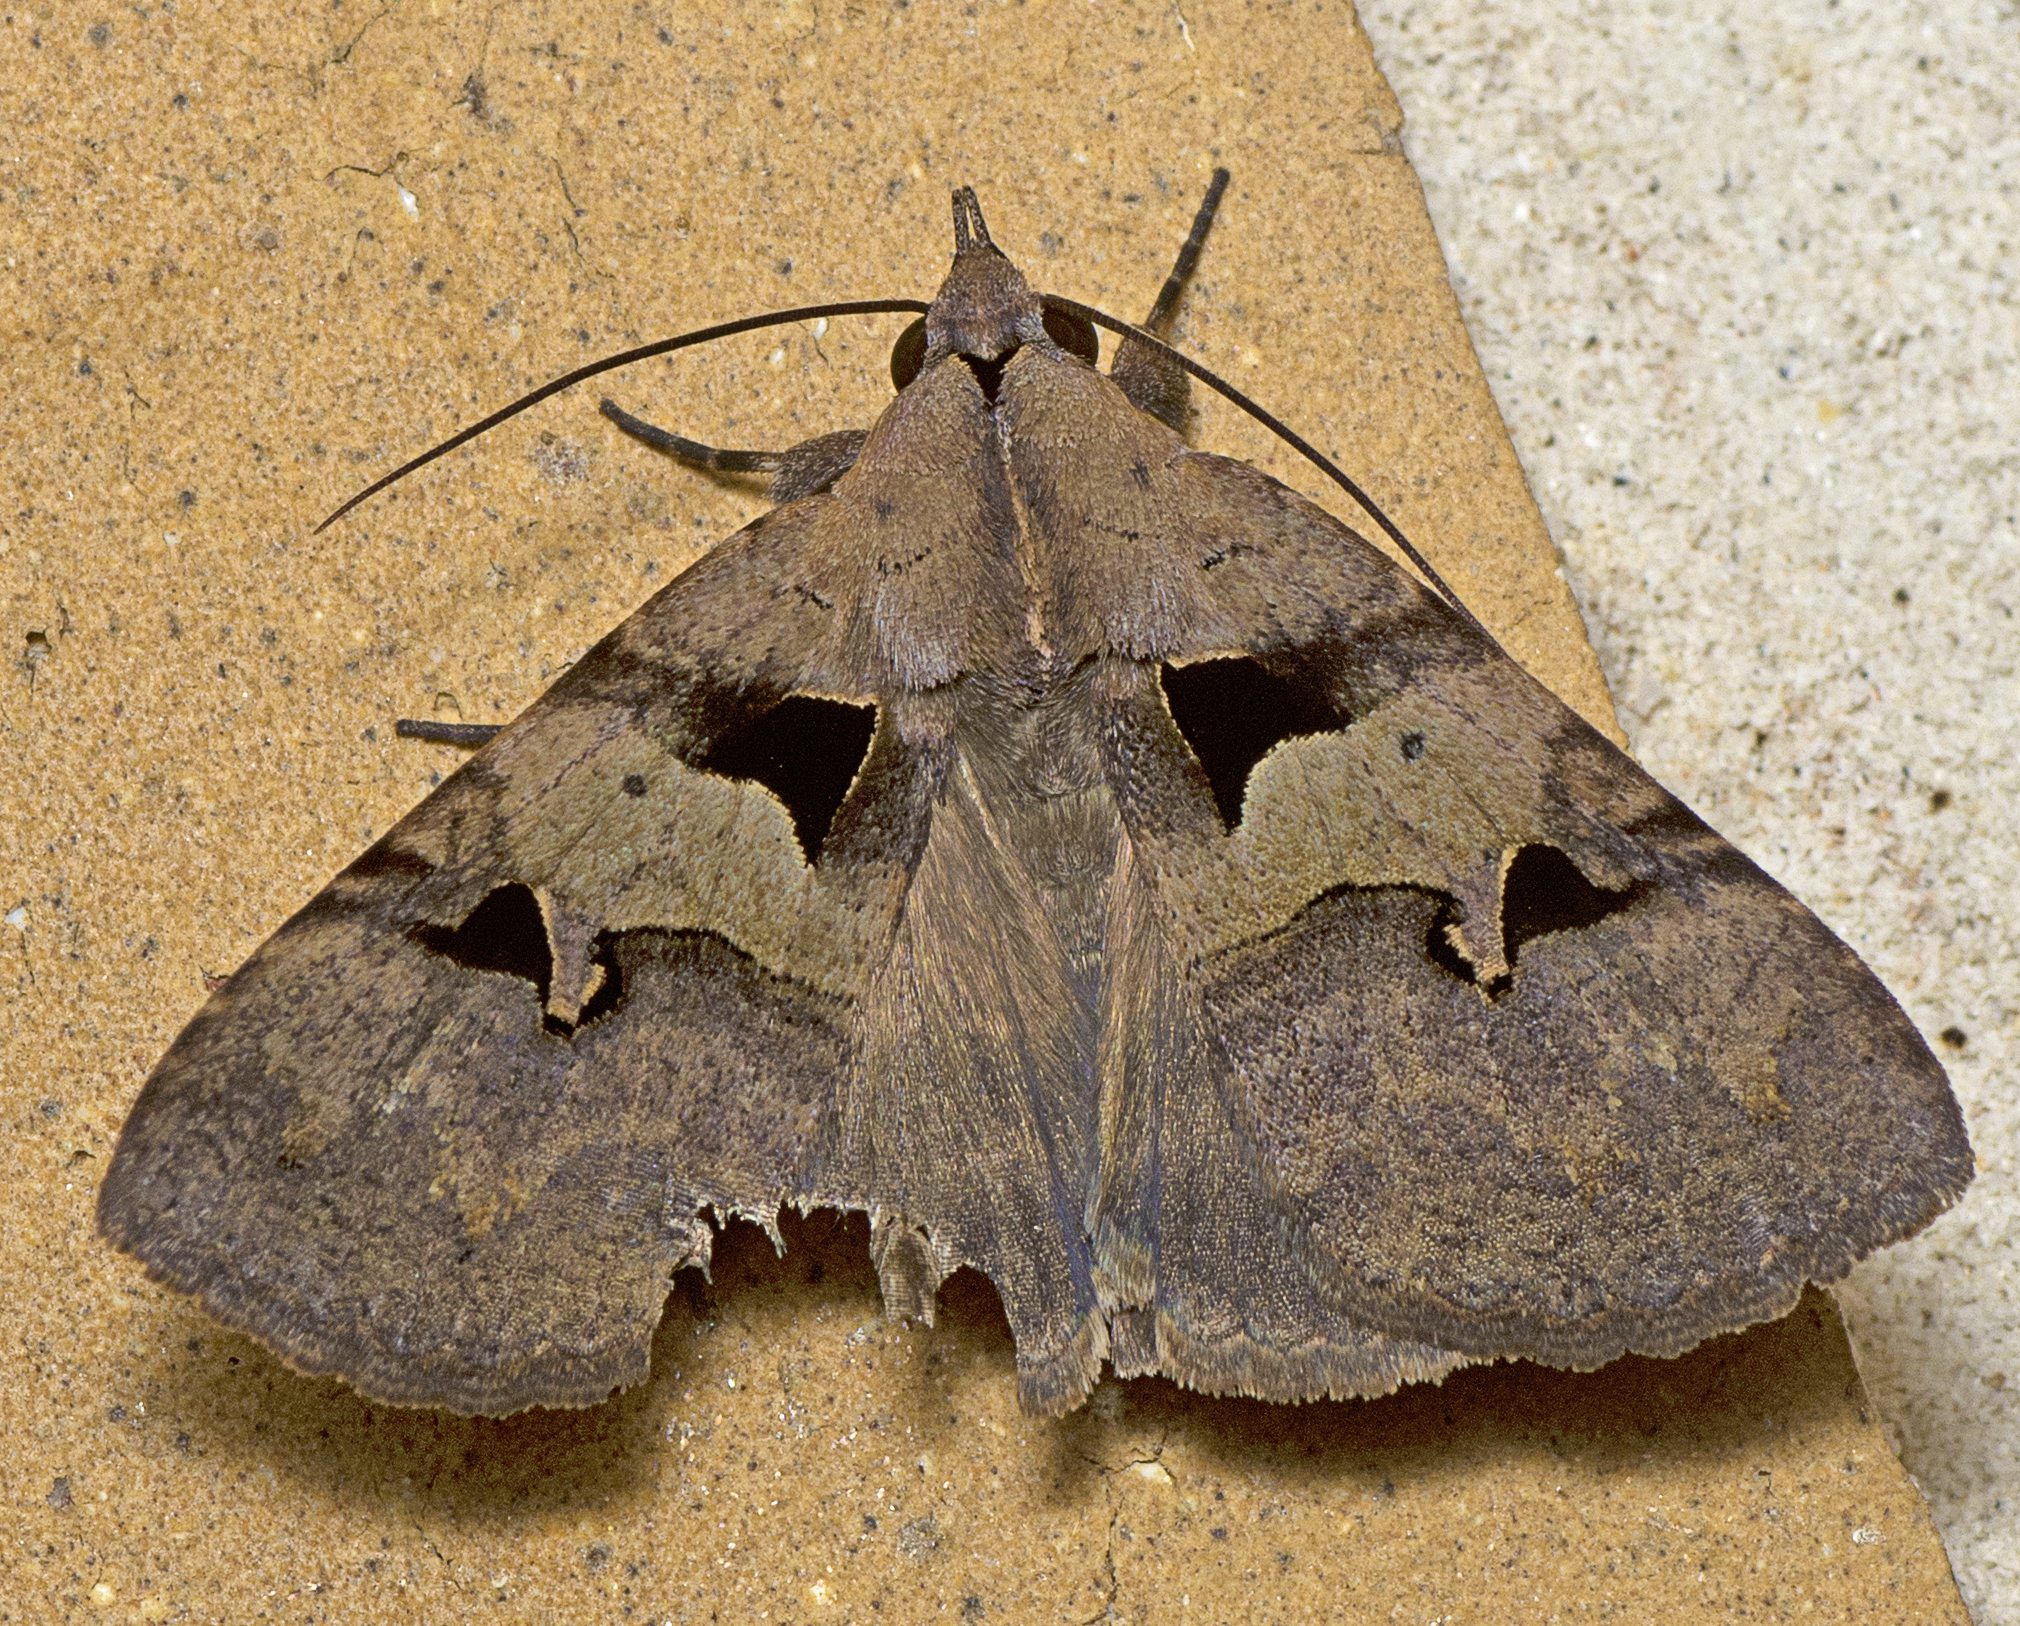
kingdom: Animalia
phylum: Arthropoda
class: Insecta
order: Lepidoptera
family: Erebidae
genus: Avatha
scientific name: Avatha discolor
